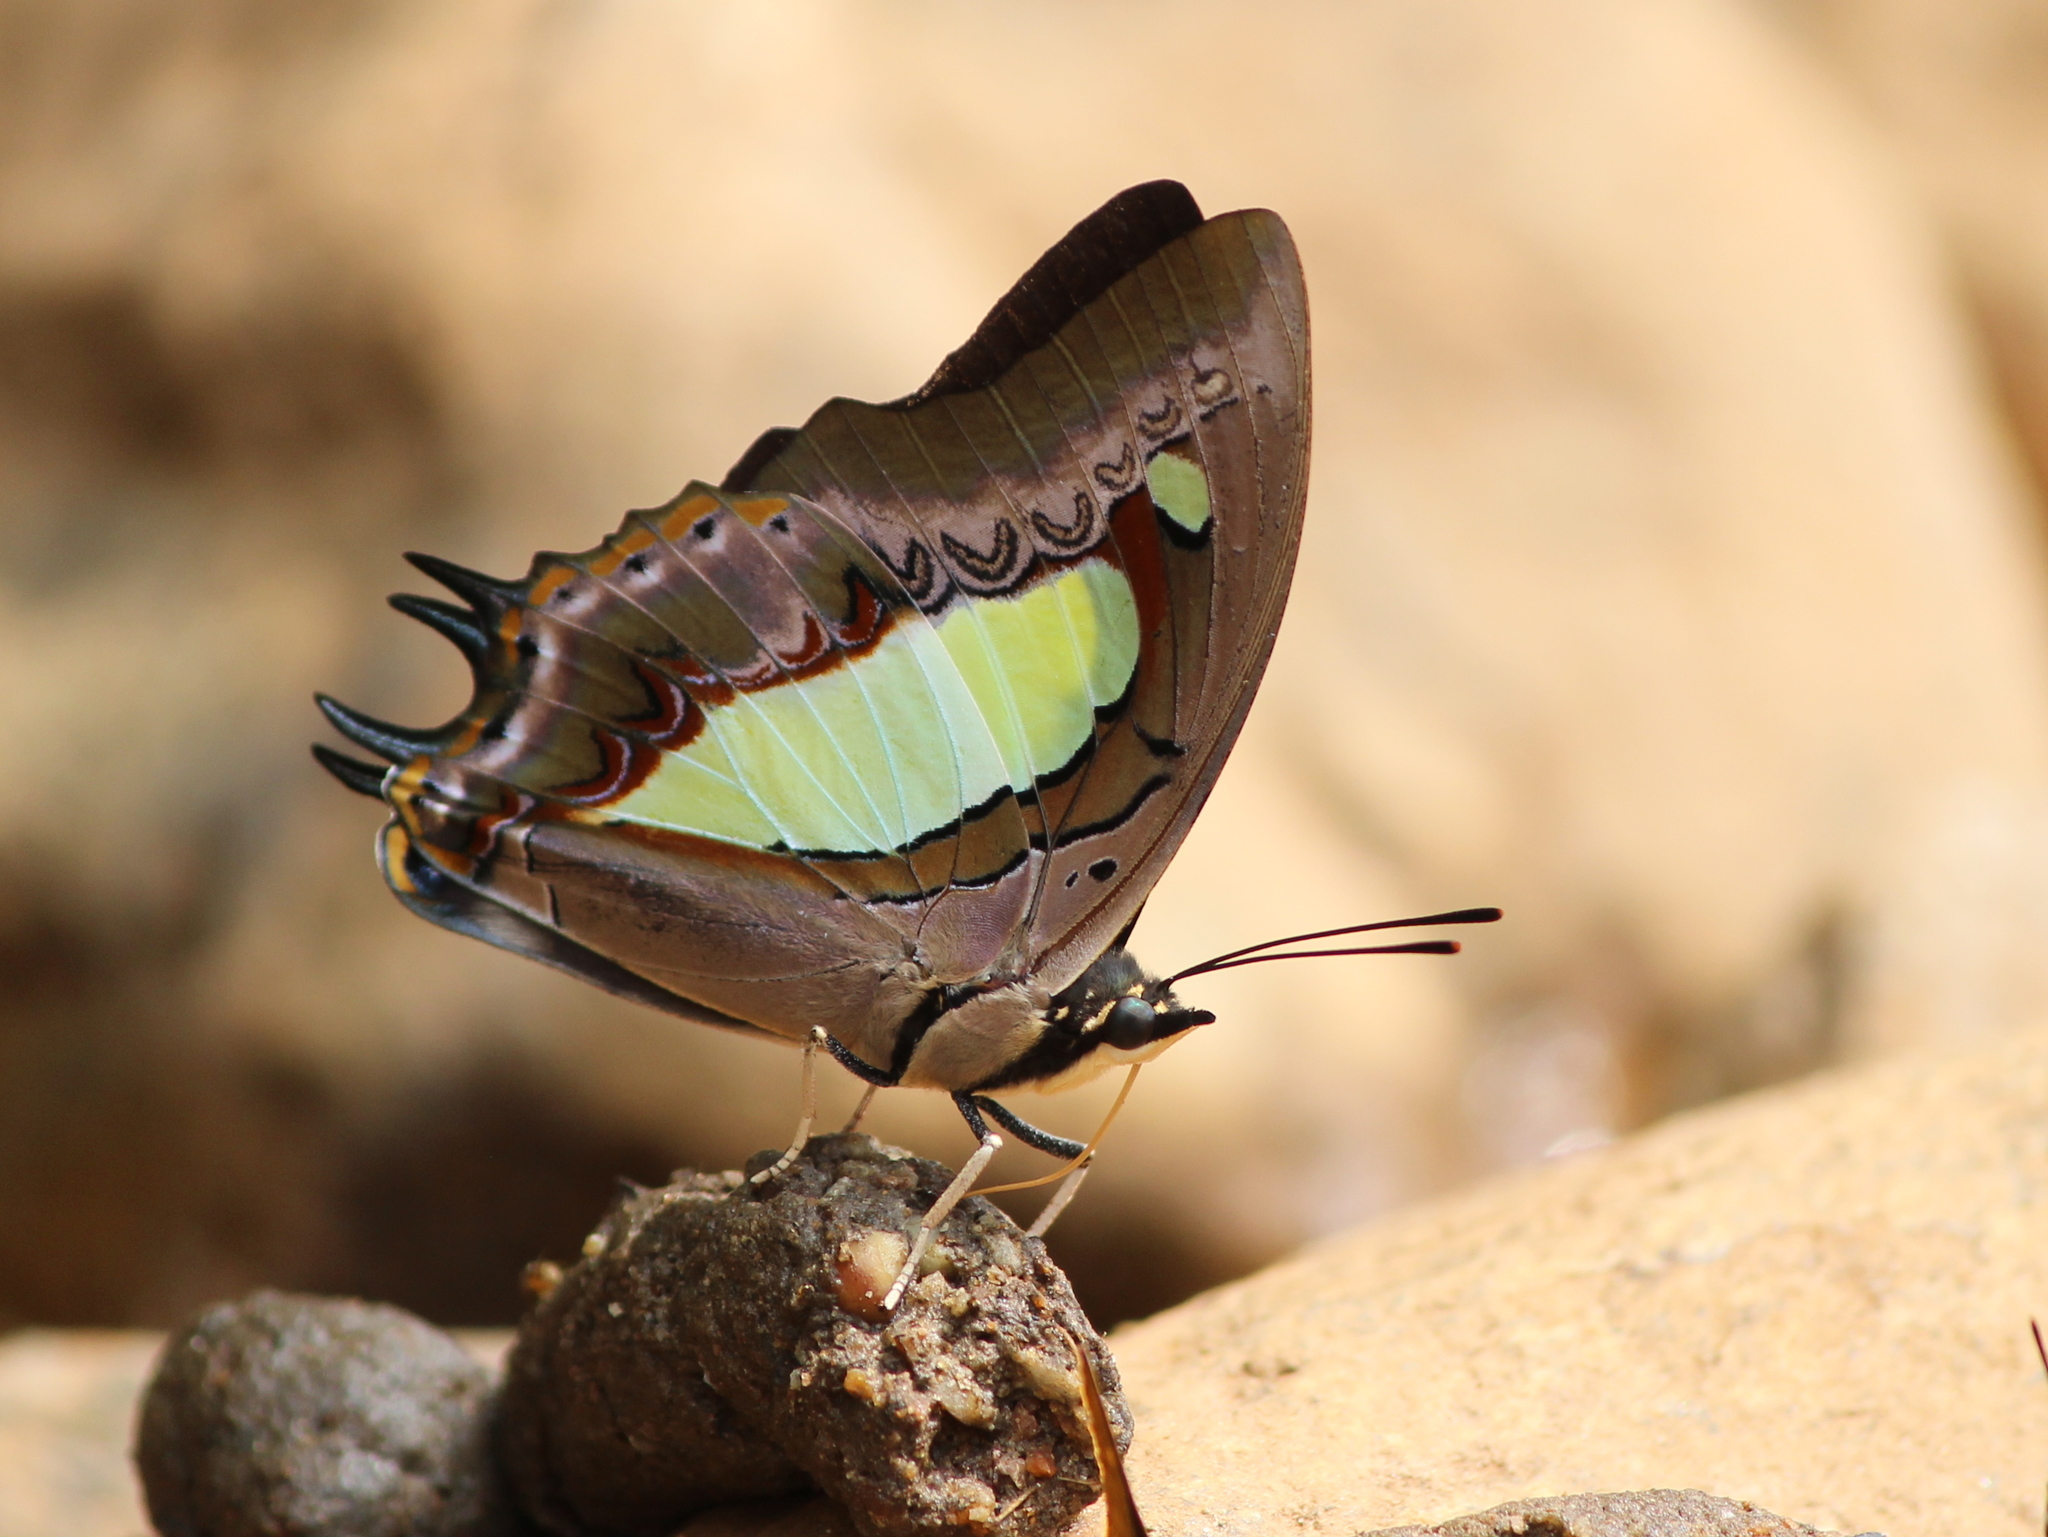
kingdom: Animalia
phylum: Arthropoda
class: Insecta
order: Lepidoptera
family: Nymphalidae
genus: Polyura
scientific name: Polyura
